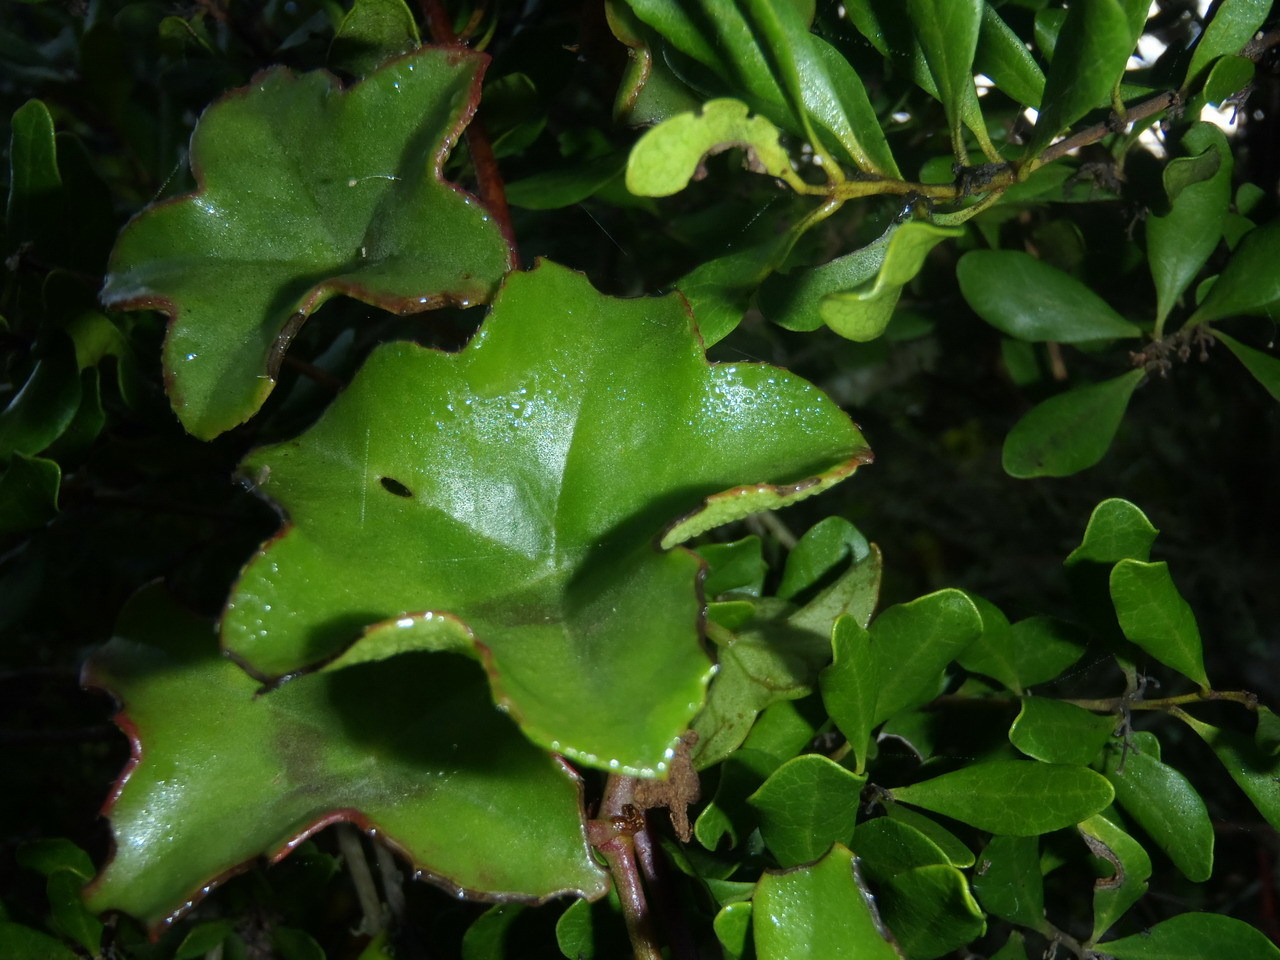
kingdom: Plantae
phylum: Tracheophyta
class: Magnoliopsida
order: Geraniales
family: Geraniaceae
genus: Pelargonium
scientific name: Pelargonium peltatum
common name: Ivyleaf geranium
